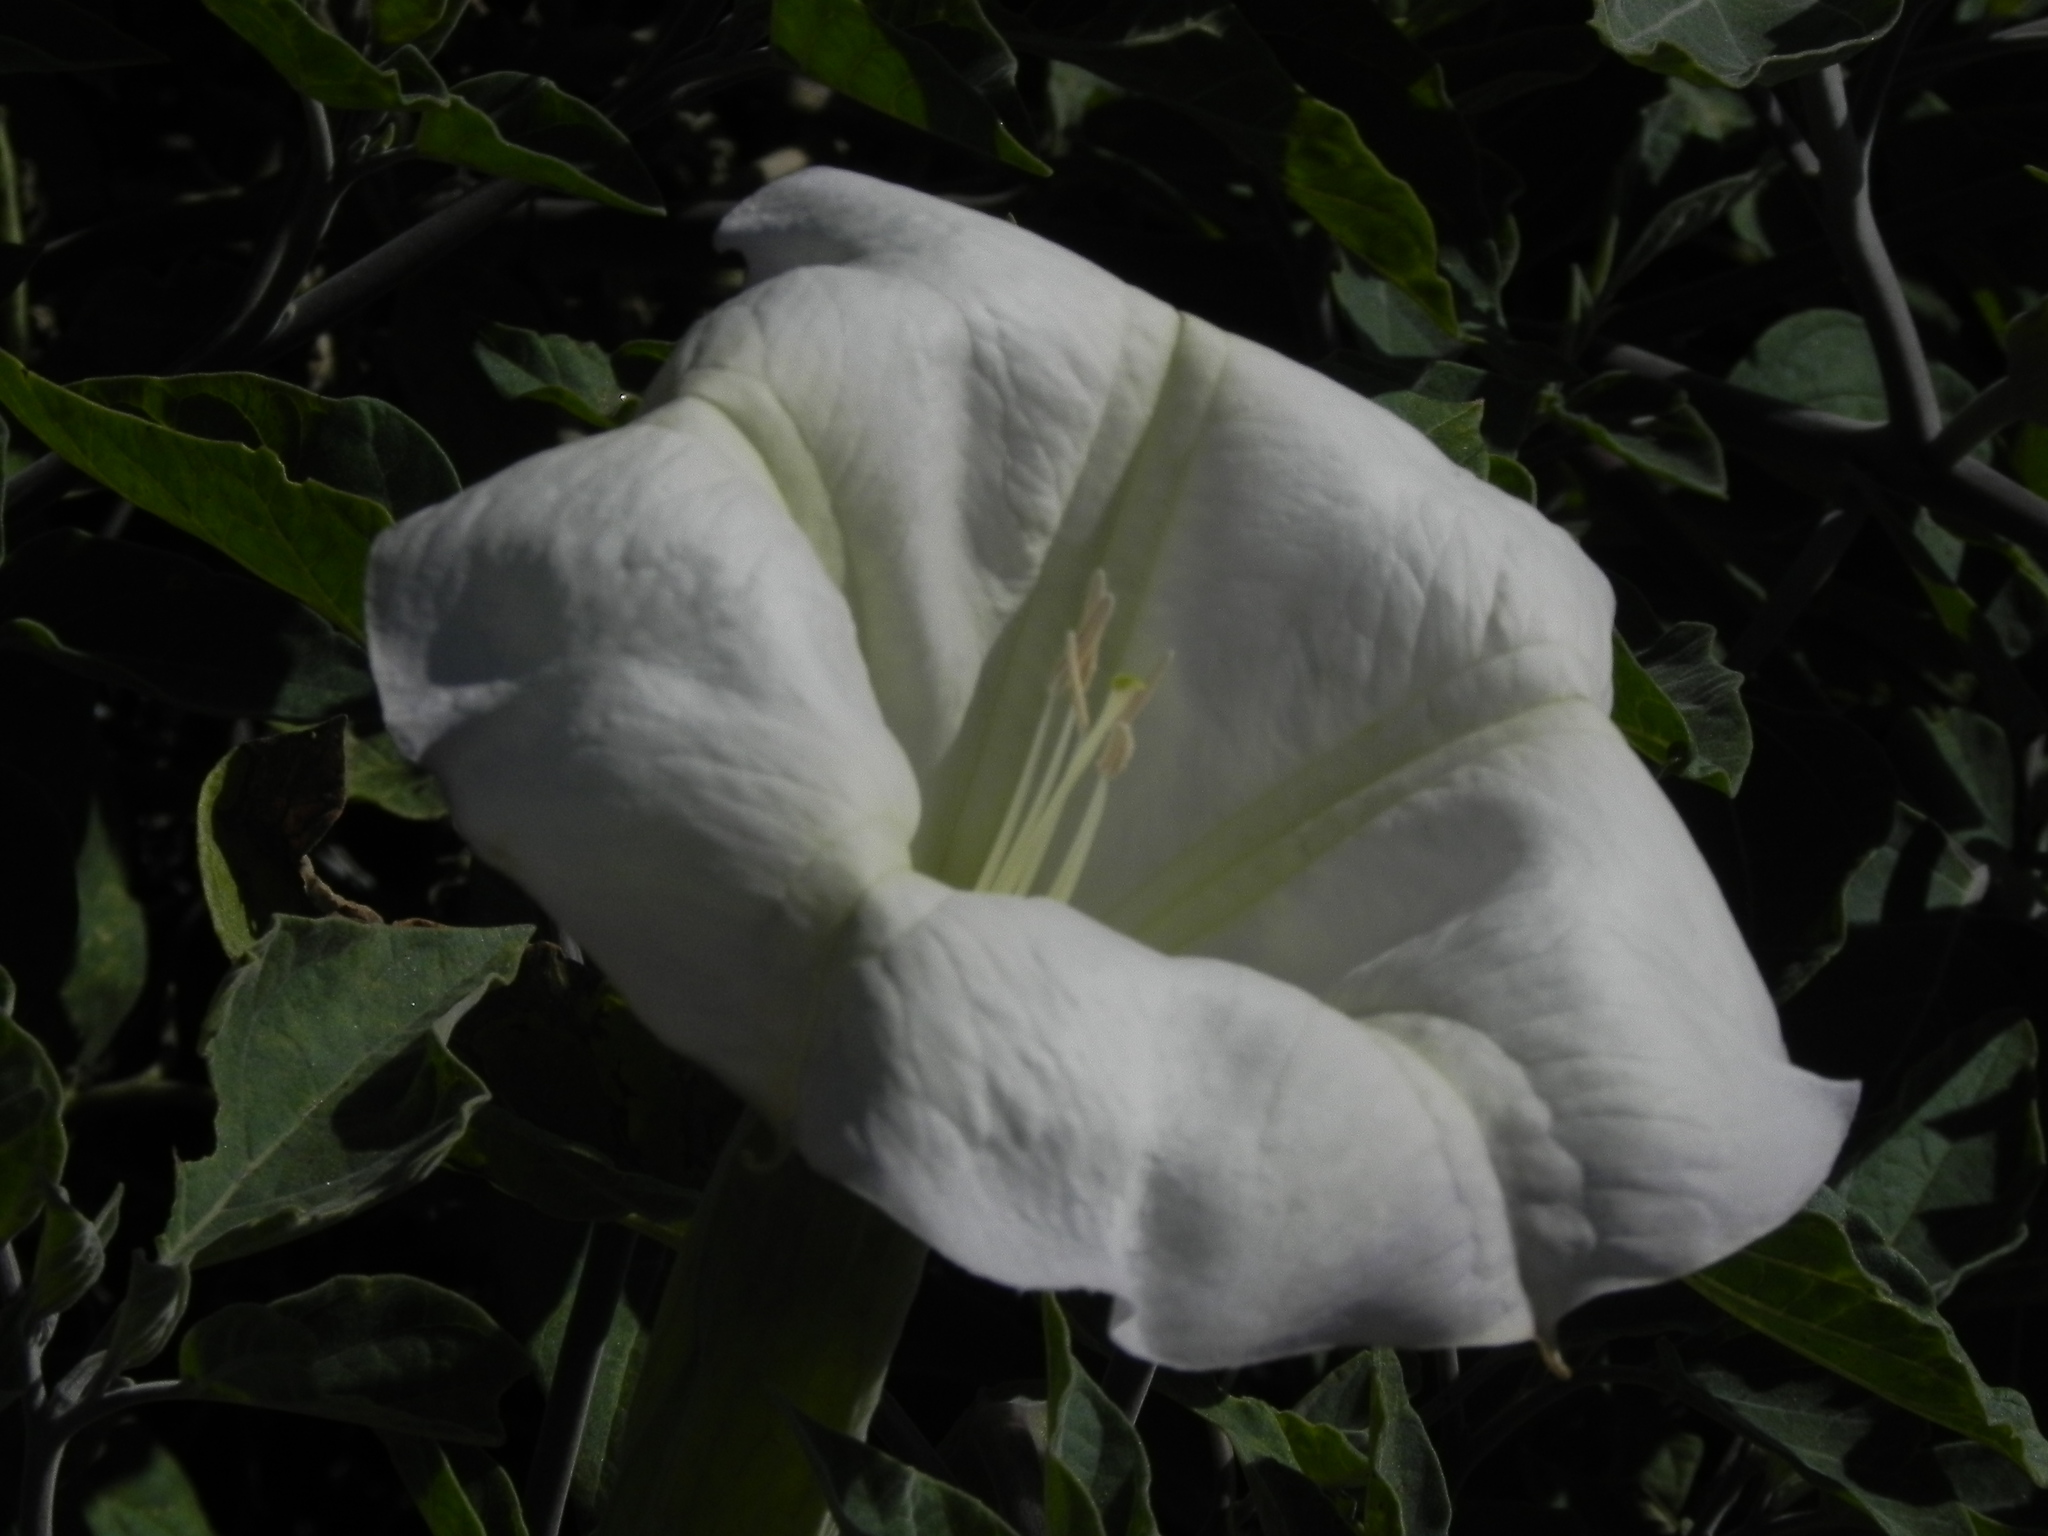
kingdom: Plantae
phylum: Tracheophyta
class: Magnoliopsida
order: Solanales
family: Solanaceae
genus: Datura
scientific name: Datura wrightii
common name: Sacred thorn-apple
